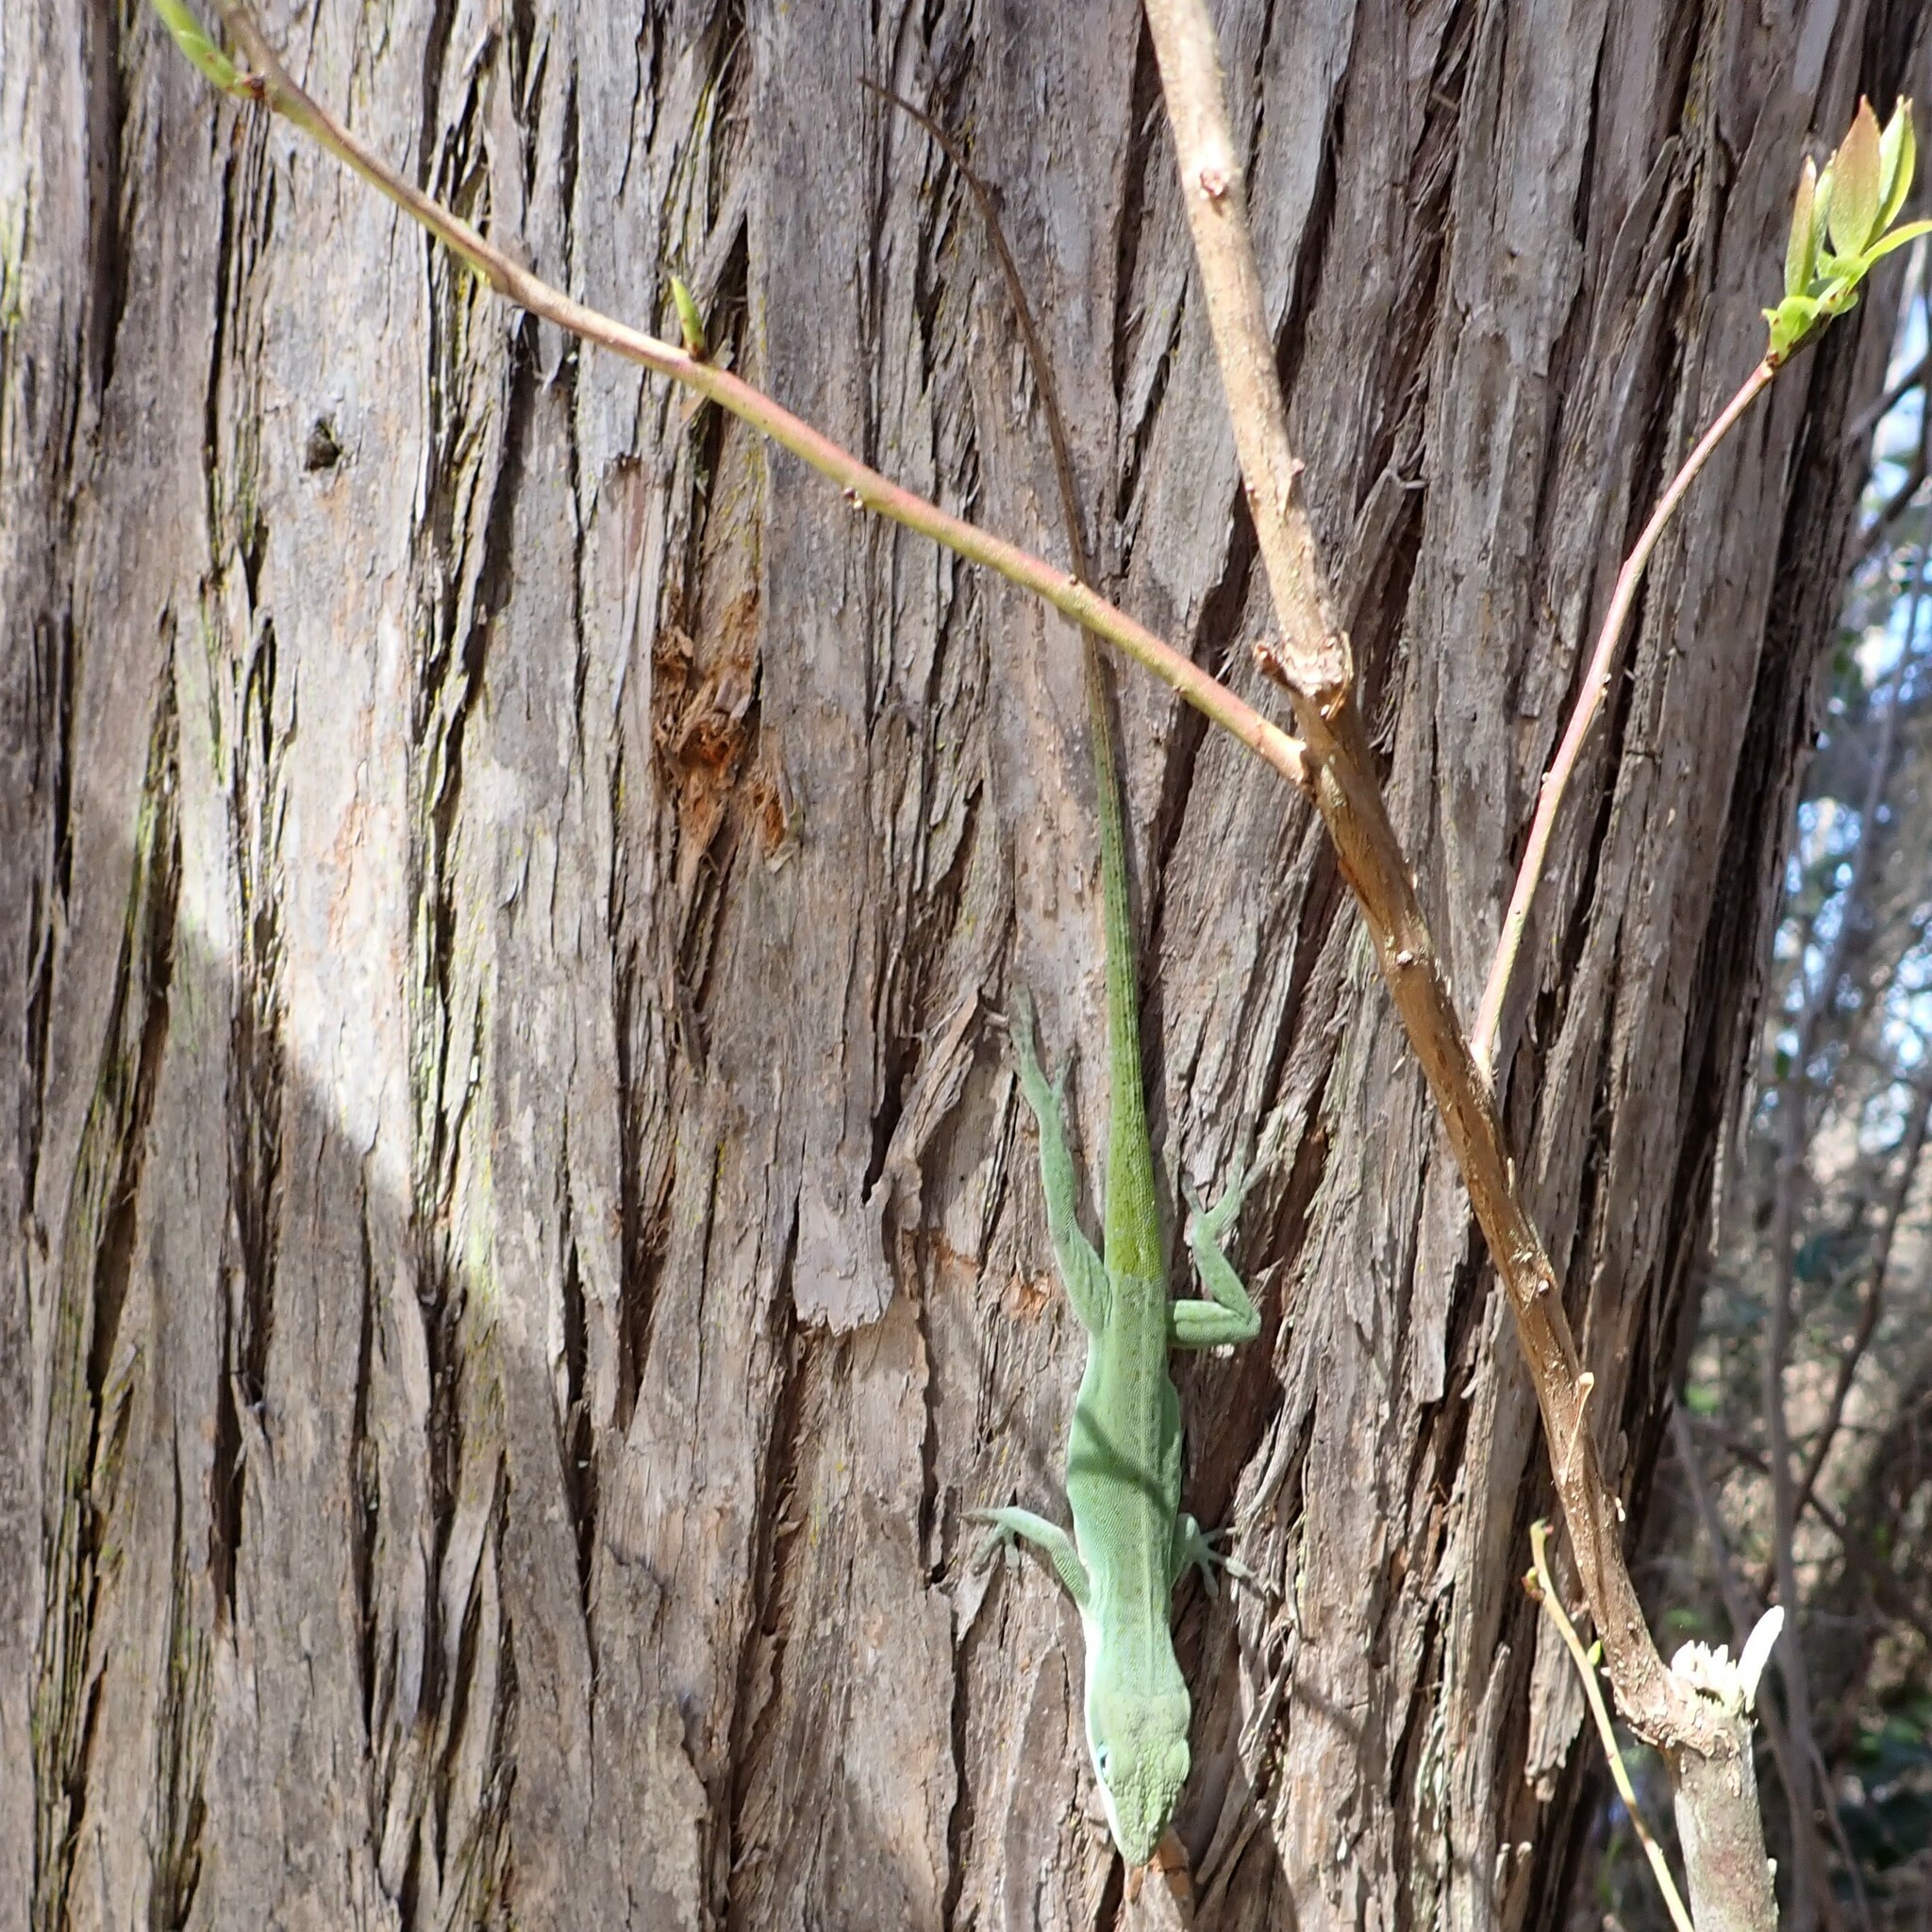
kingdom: Animalia
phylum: Chordata
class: Squamata
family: Dactyloidae
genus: Anolis
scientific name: Anolis carolinensis
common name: Green anole
